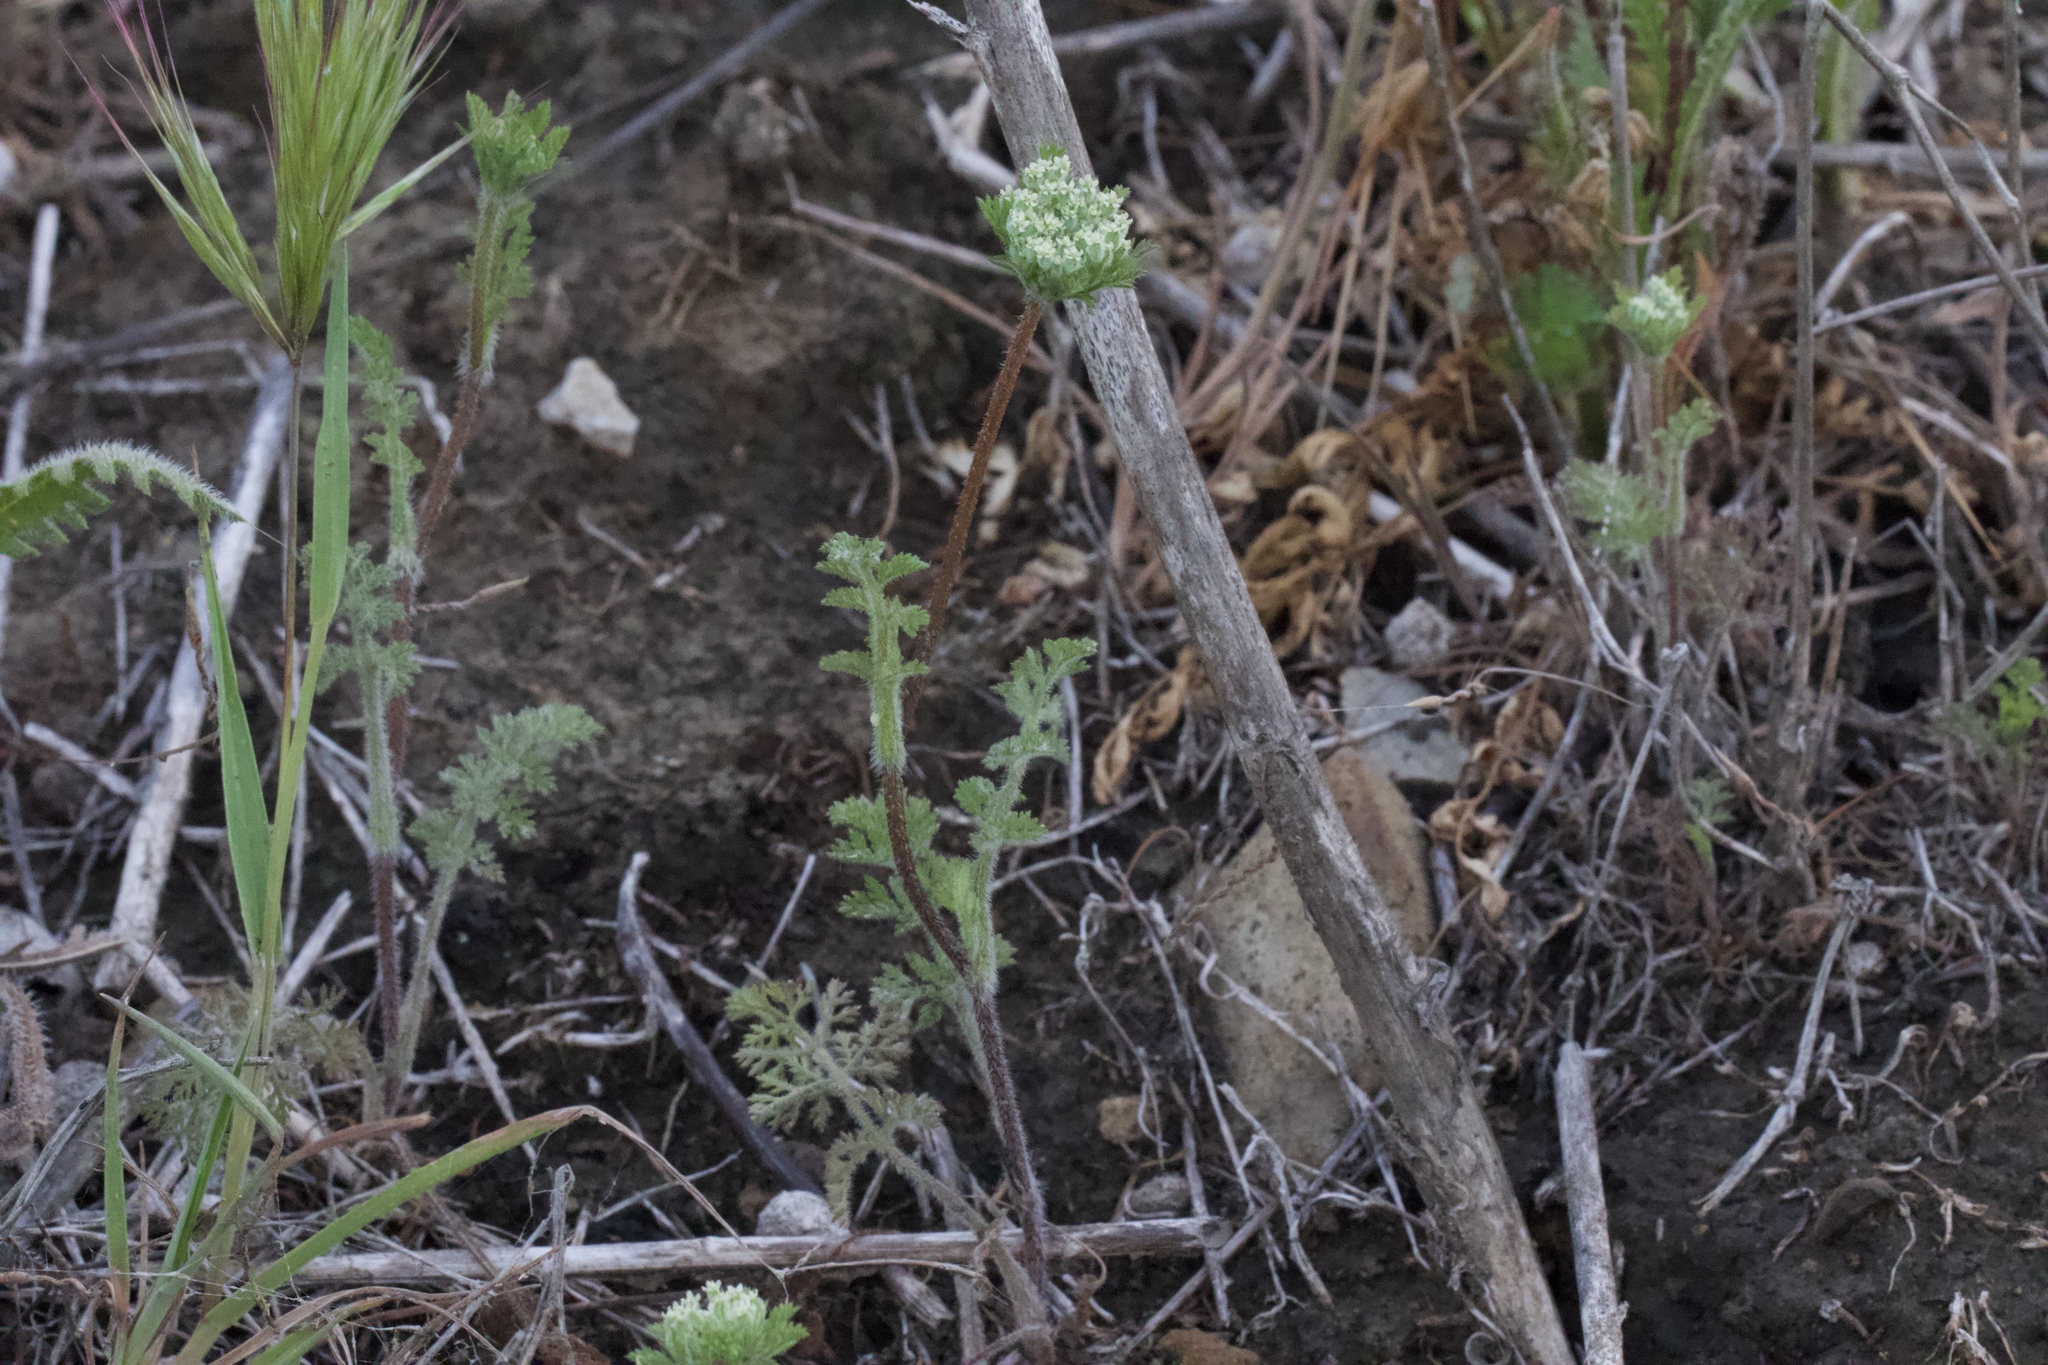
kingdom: Plantae
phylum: Tracheophyta
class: Magnoliopsida
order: Apiales
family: Apiaceae
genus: Daucus
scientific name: Daucus pusillus
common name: Southwest wild carrot
